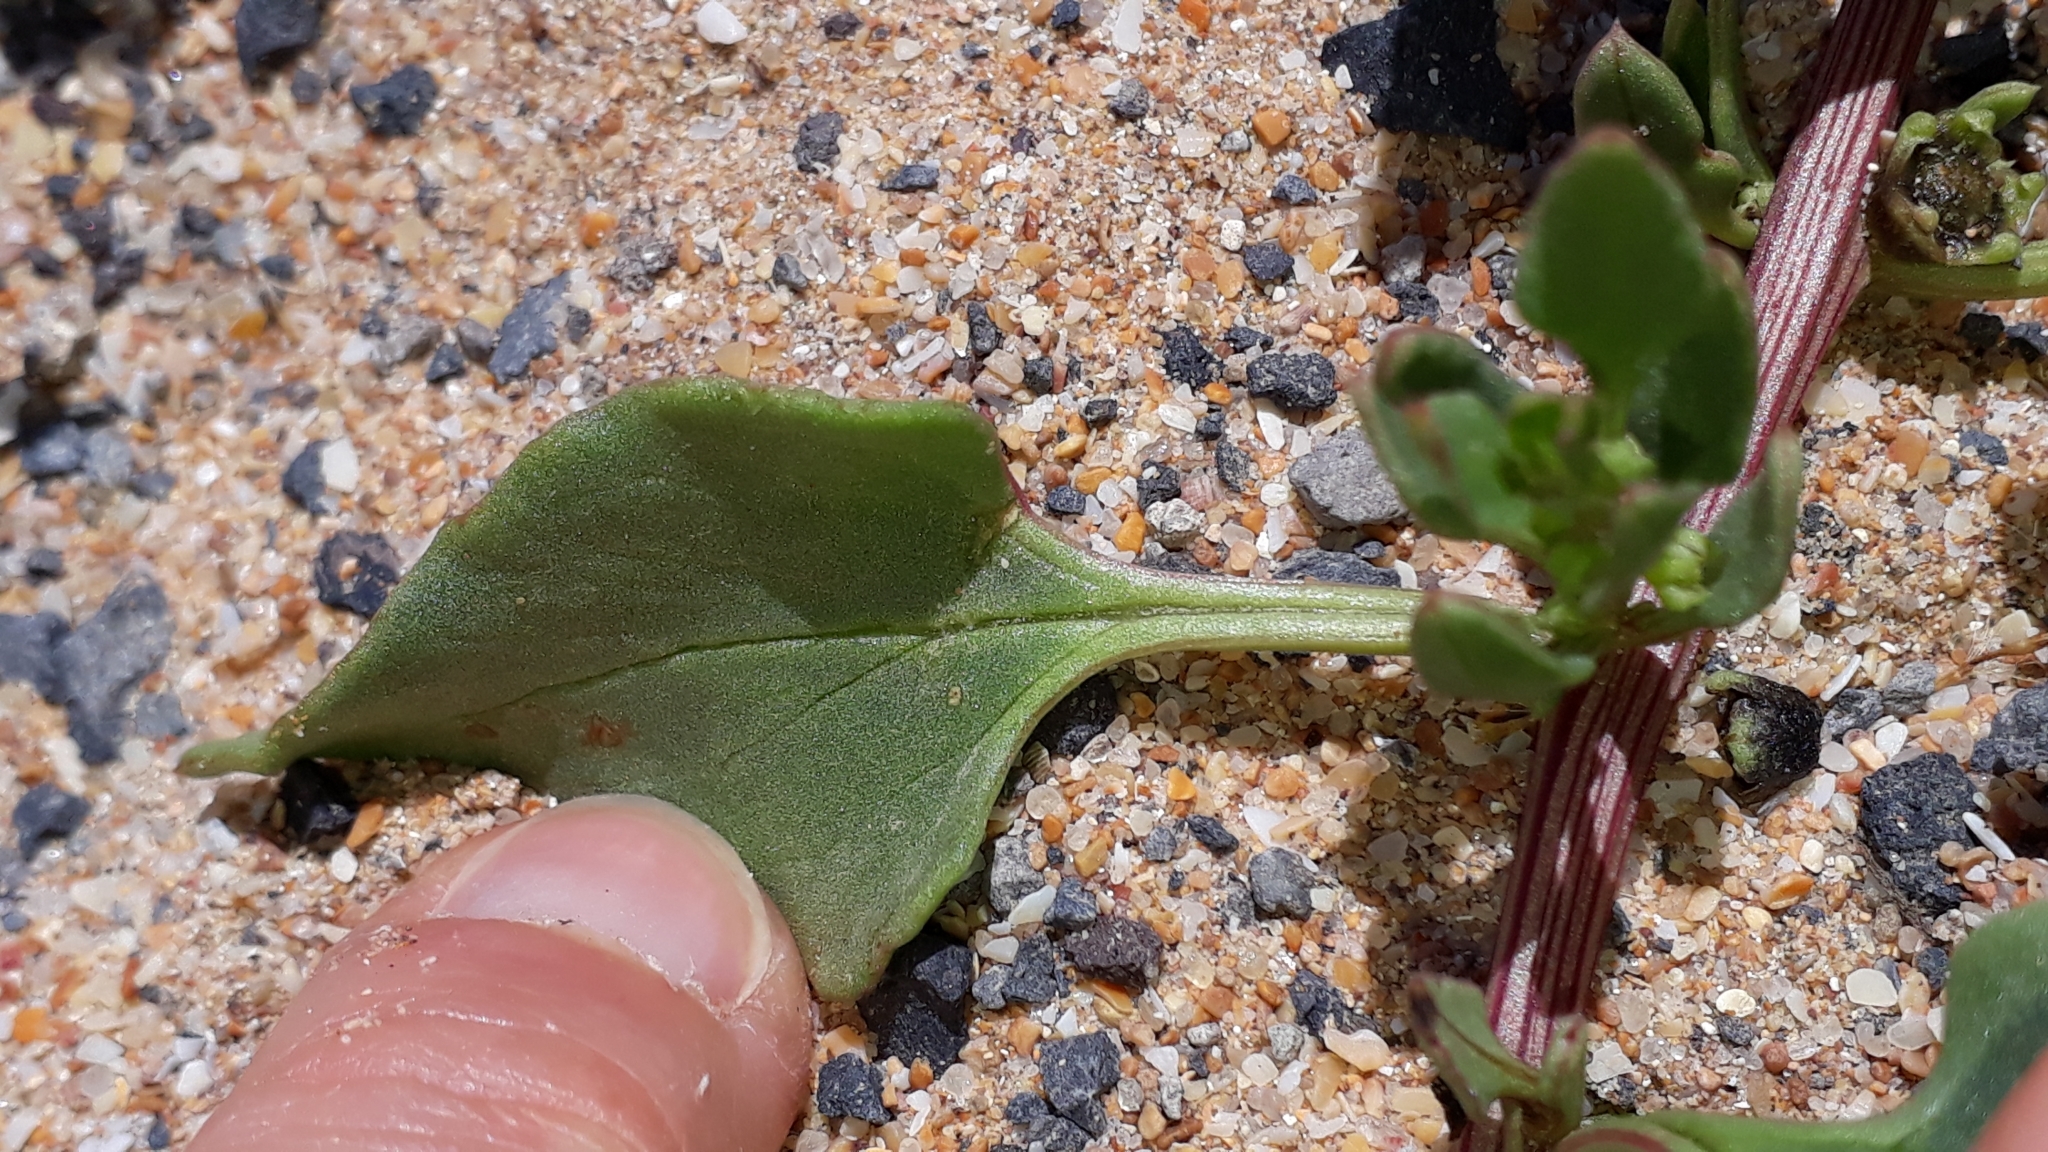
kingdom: Plantae
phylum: Tracheophyta
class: Magnoliopsida
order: Caryophyllales
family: Amaranthaceae
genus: Patellifolia
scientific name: Patellifolia procumbens
